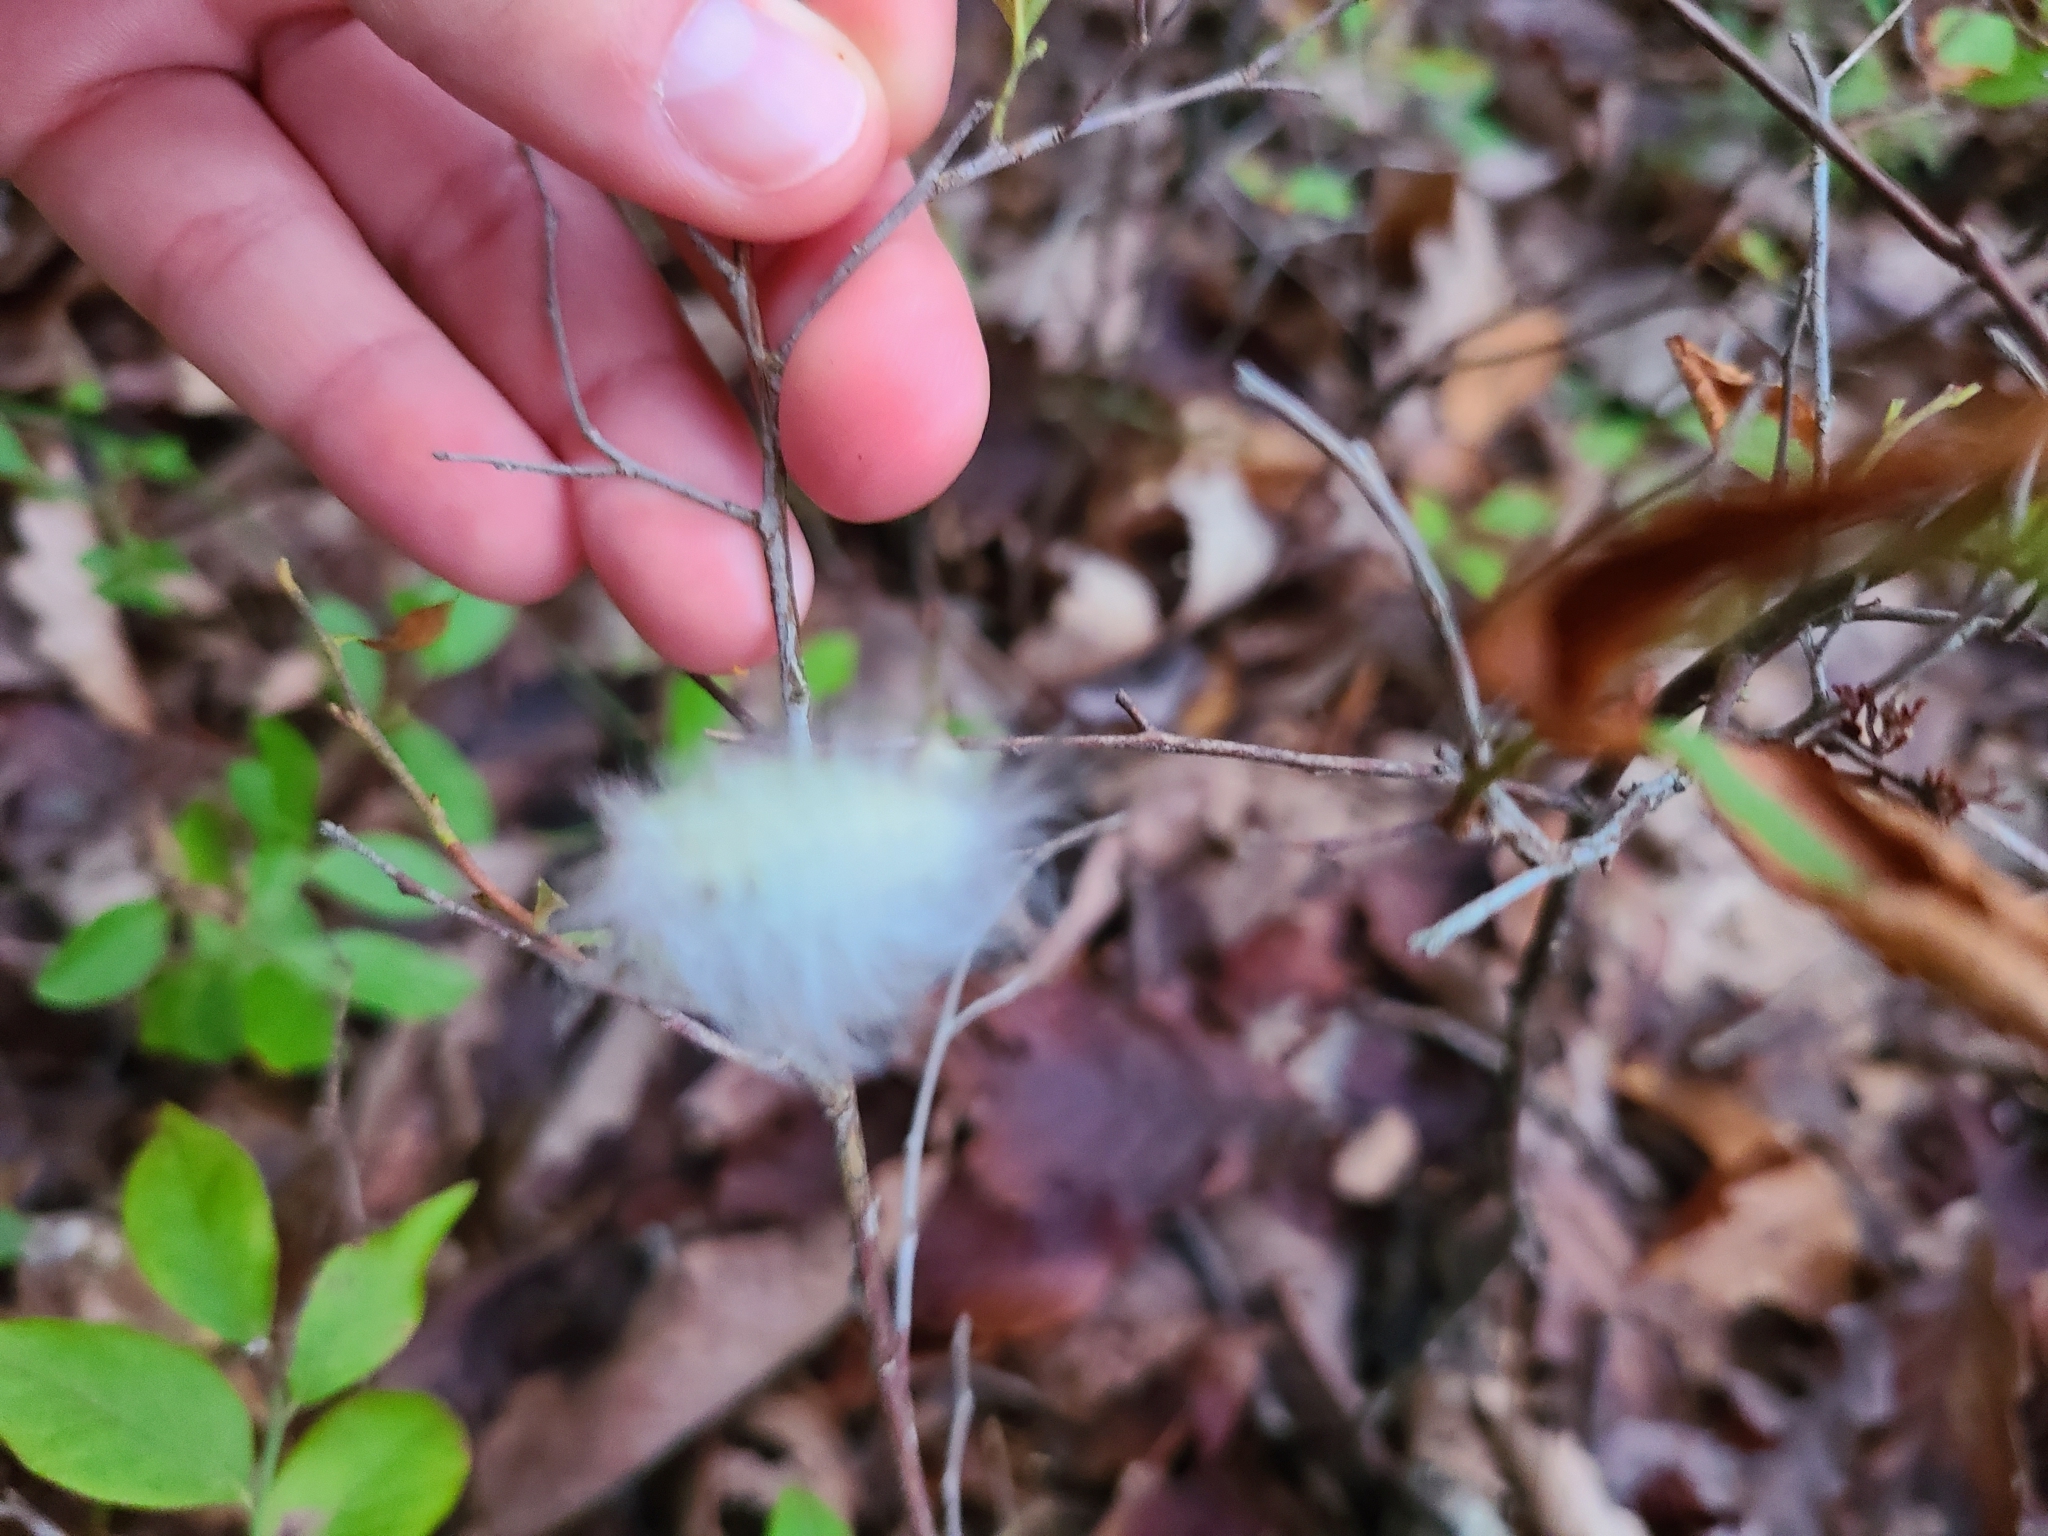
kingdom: Animalia
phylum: Arthropoda
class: Insecta
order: Lepidoptera
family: Megalopygidae
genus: Megalopyge
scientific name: Megalopyge crispata
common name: Black-waved flannel moth
